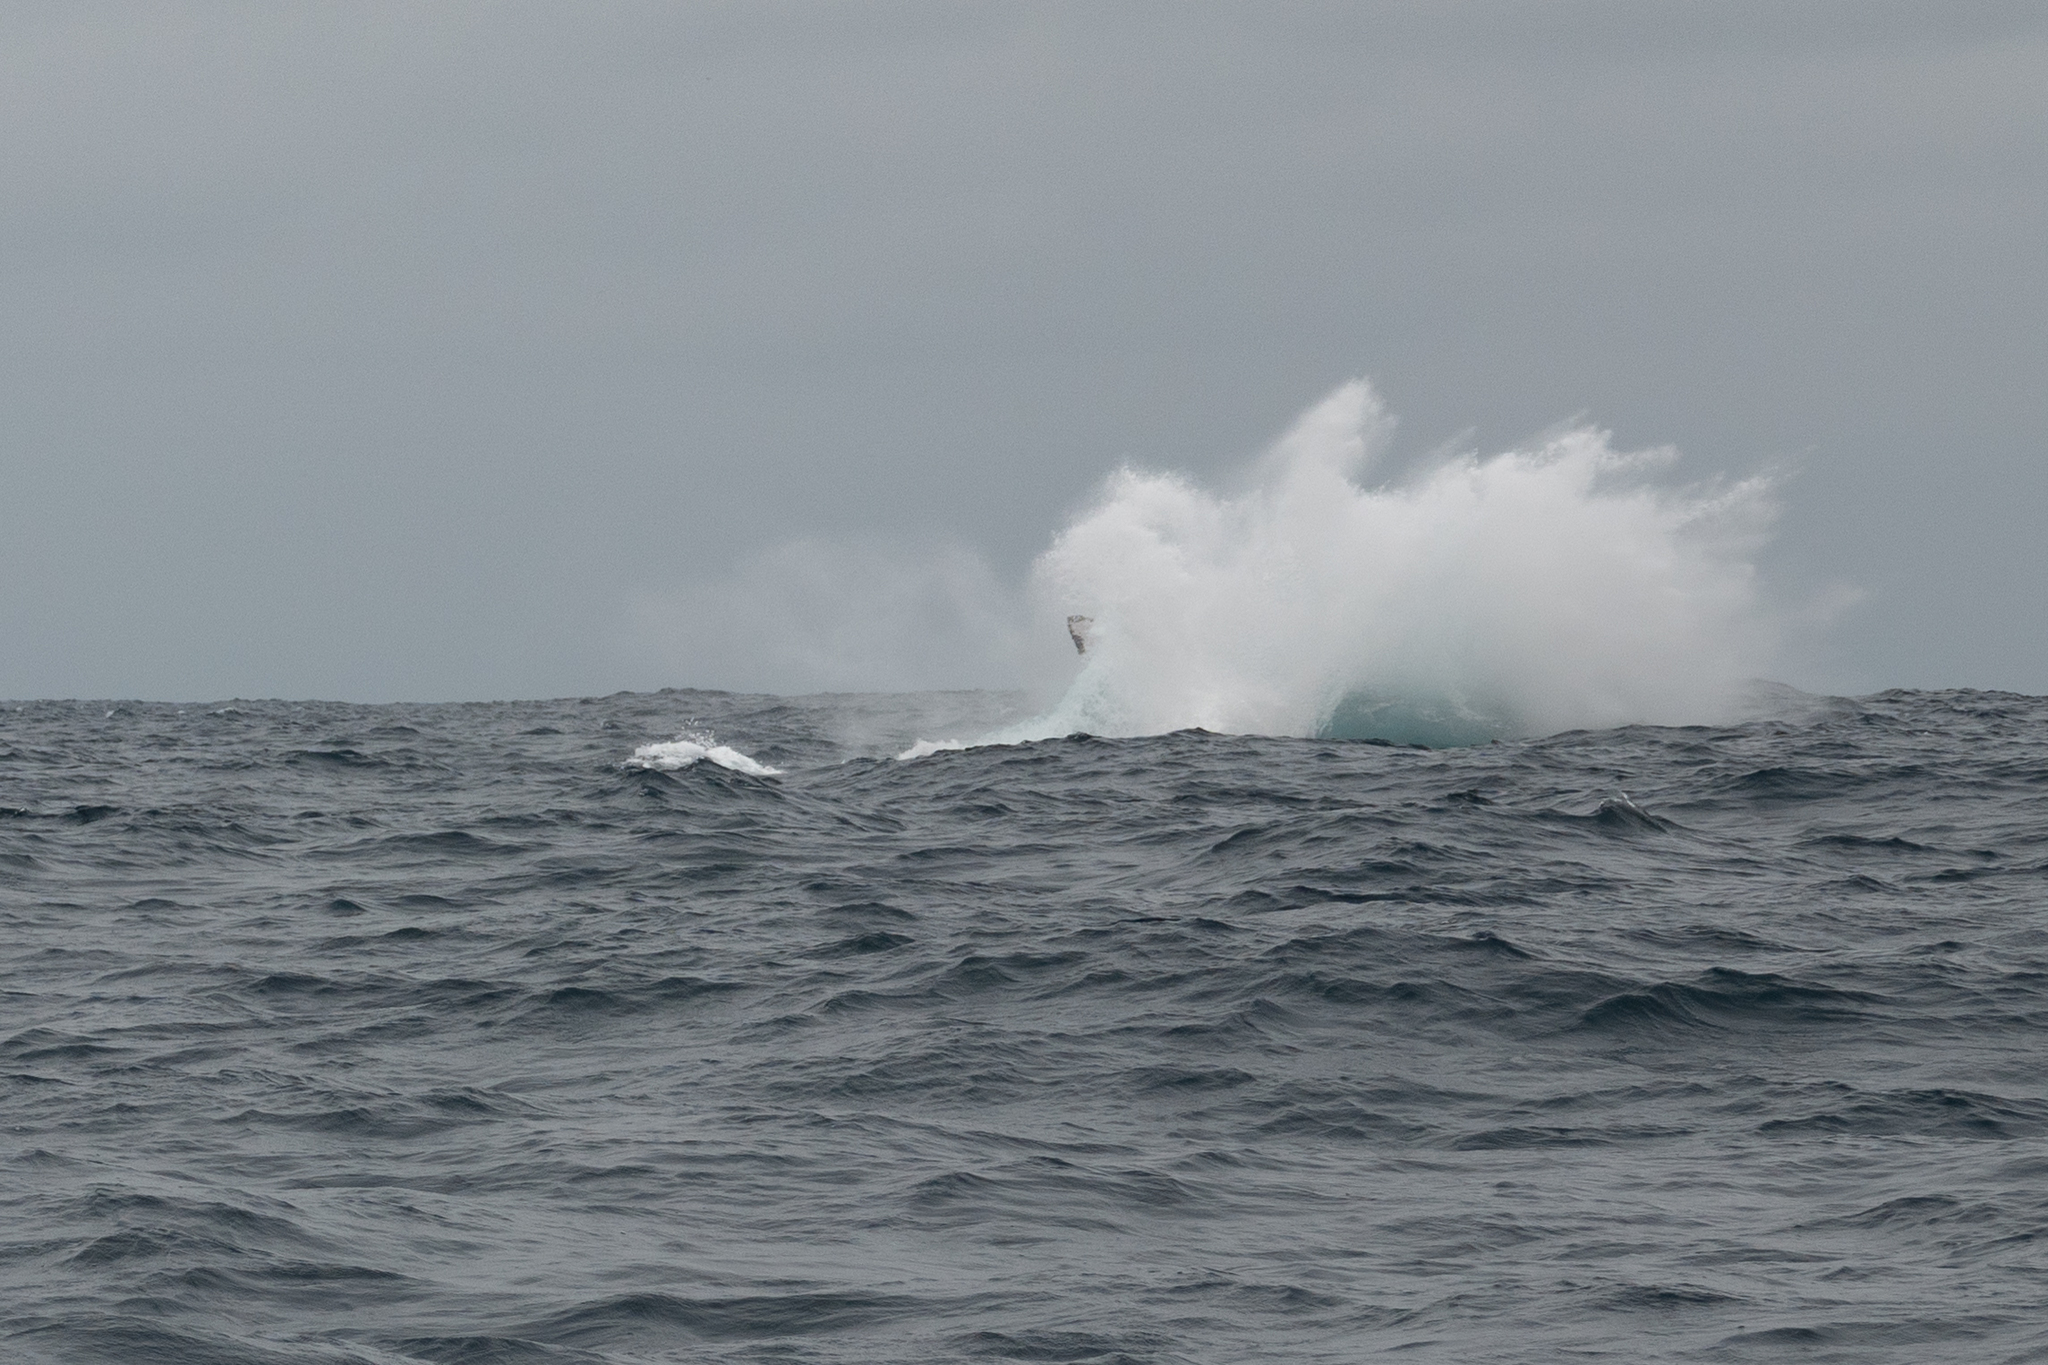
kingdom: Animalia
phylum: Chordata
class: Mammalia
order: Cetacea
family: Balaenopteridae
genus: Megaptera
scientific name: Megaptera novaeangliae
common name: Humpback whale
